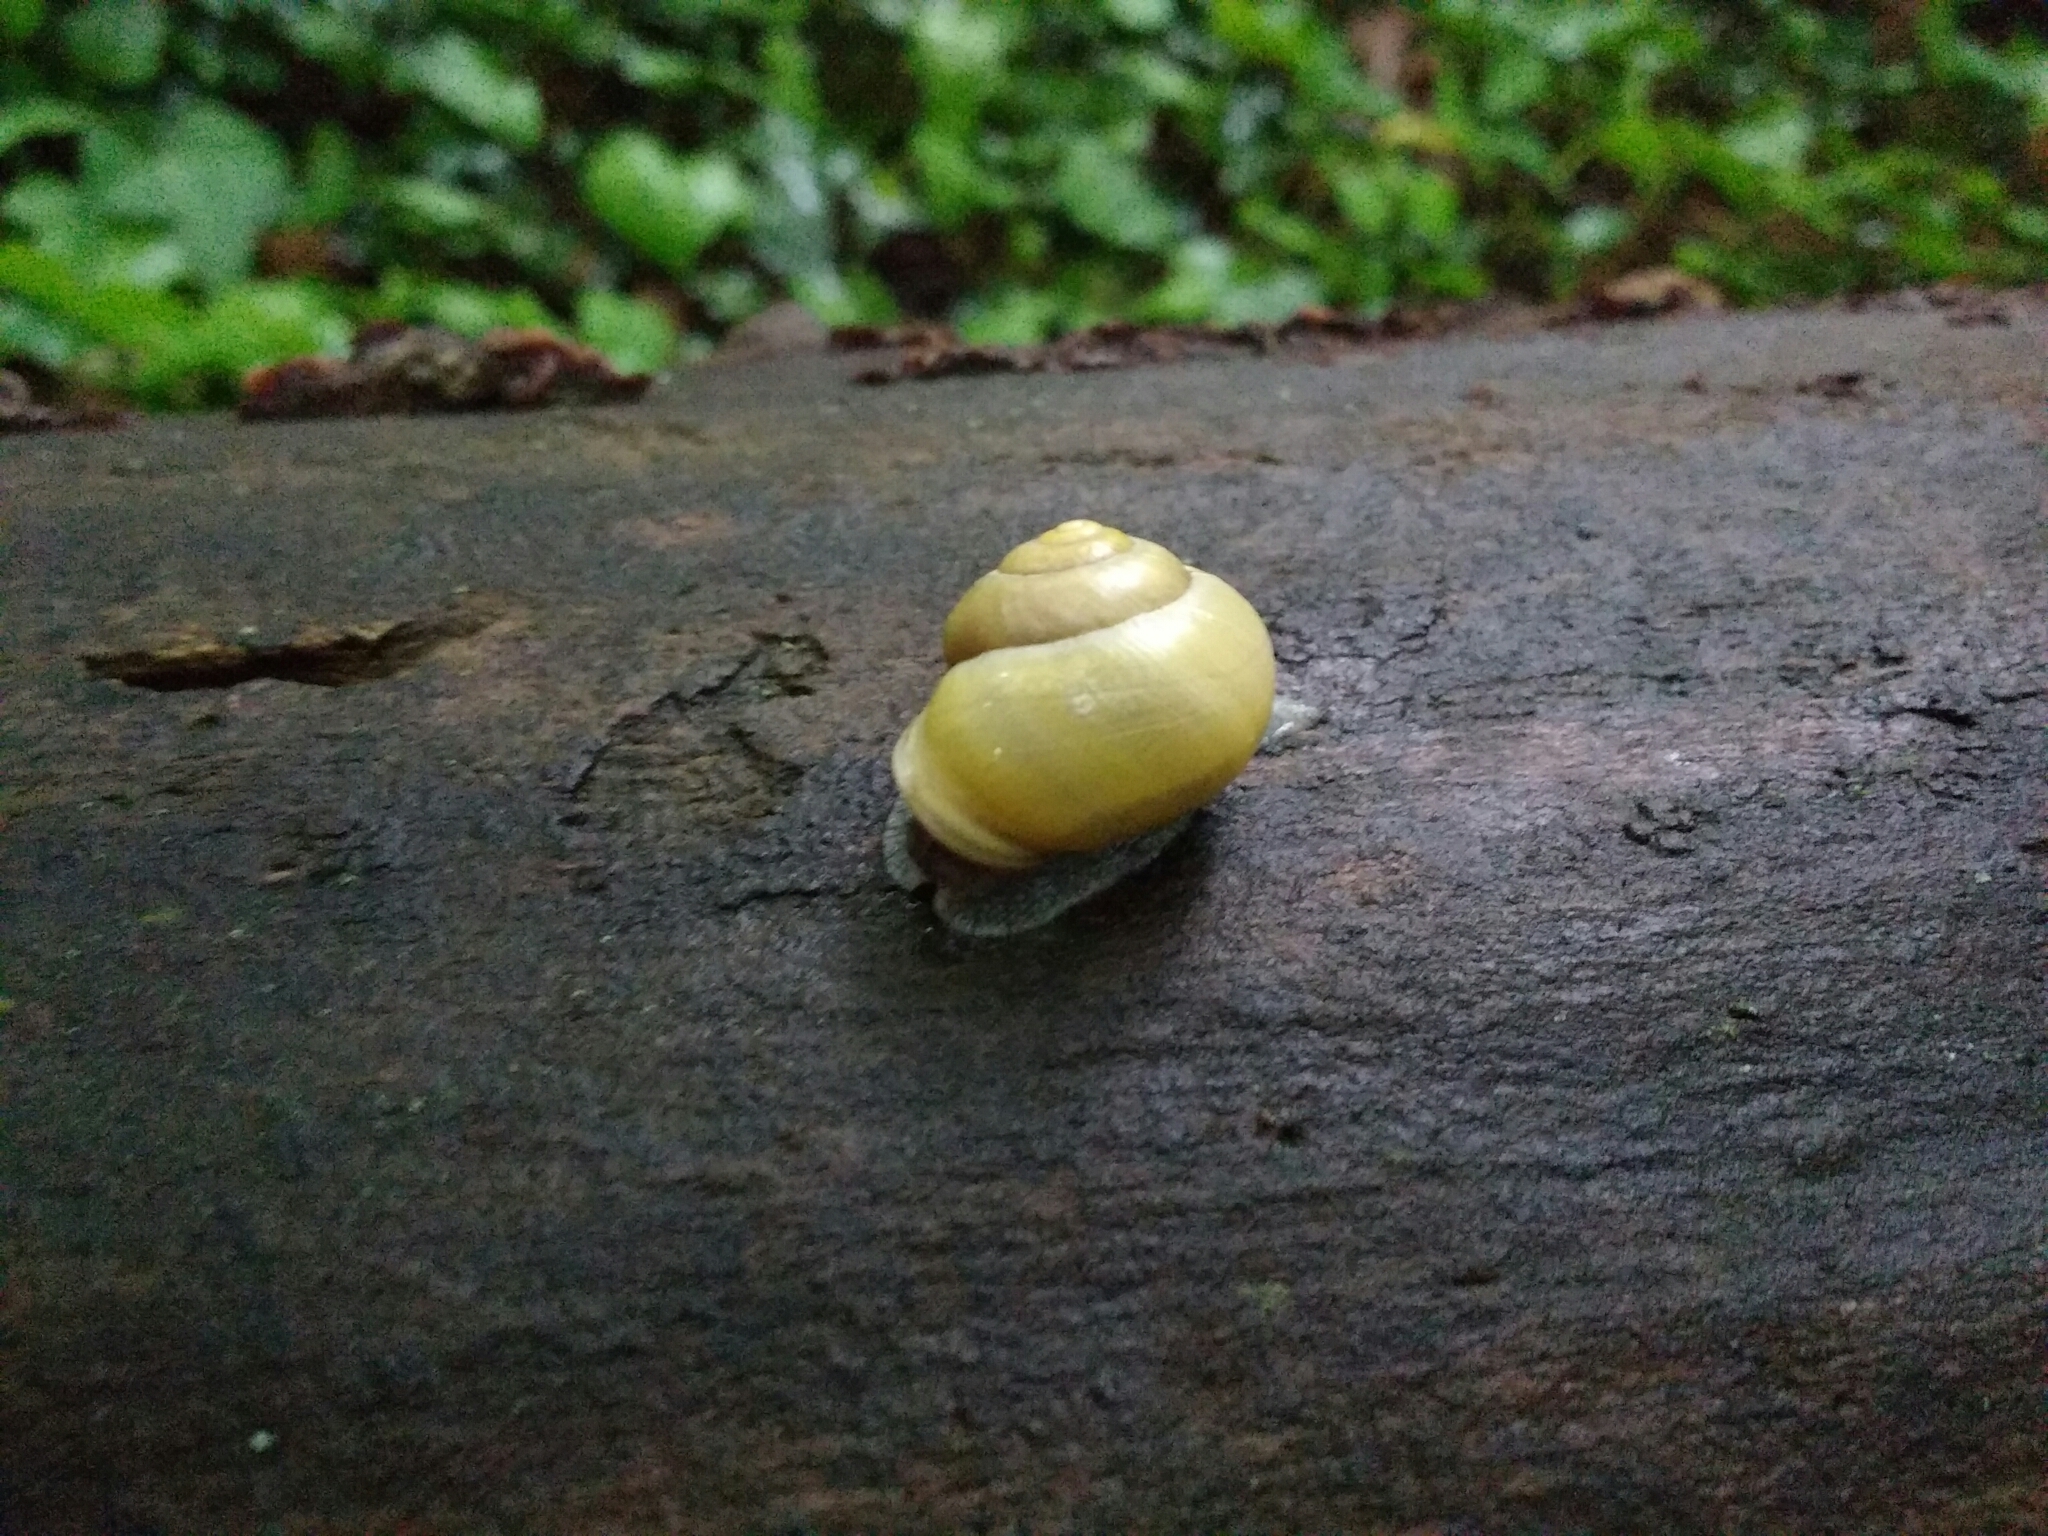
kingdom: Animalia
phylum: Mollusca
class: Gastropoda
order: Stylommatophora
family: Helicidae
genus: Cepaea
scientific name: Cepaea hortensis
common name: White-lip gardensnail
